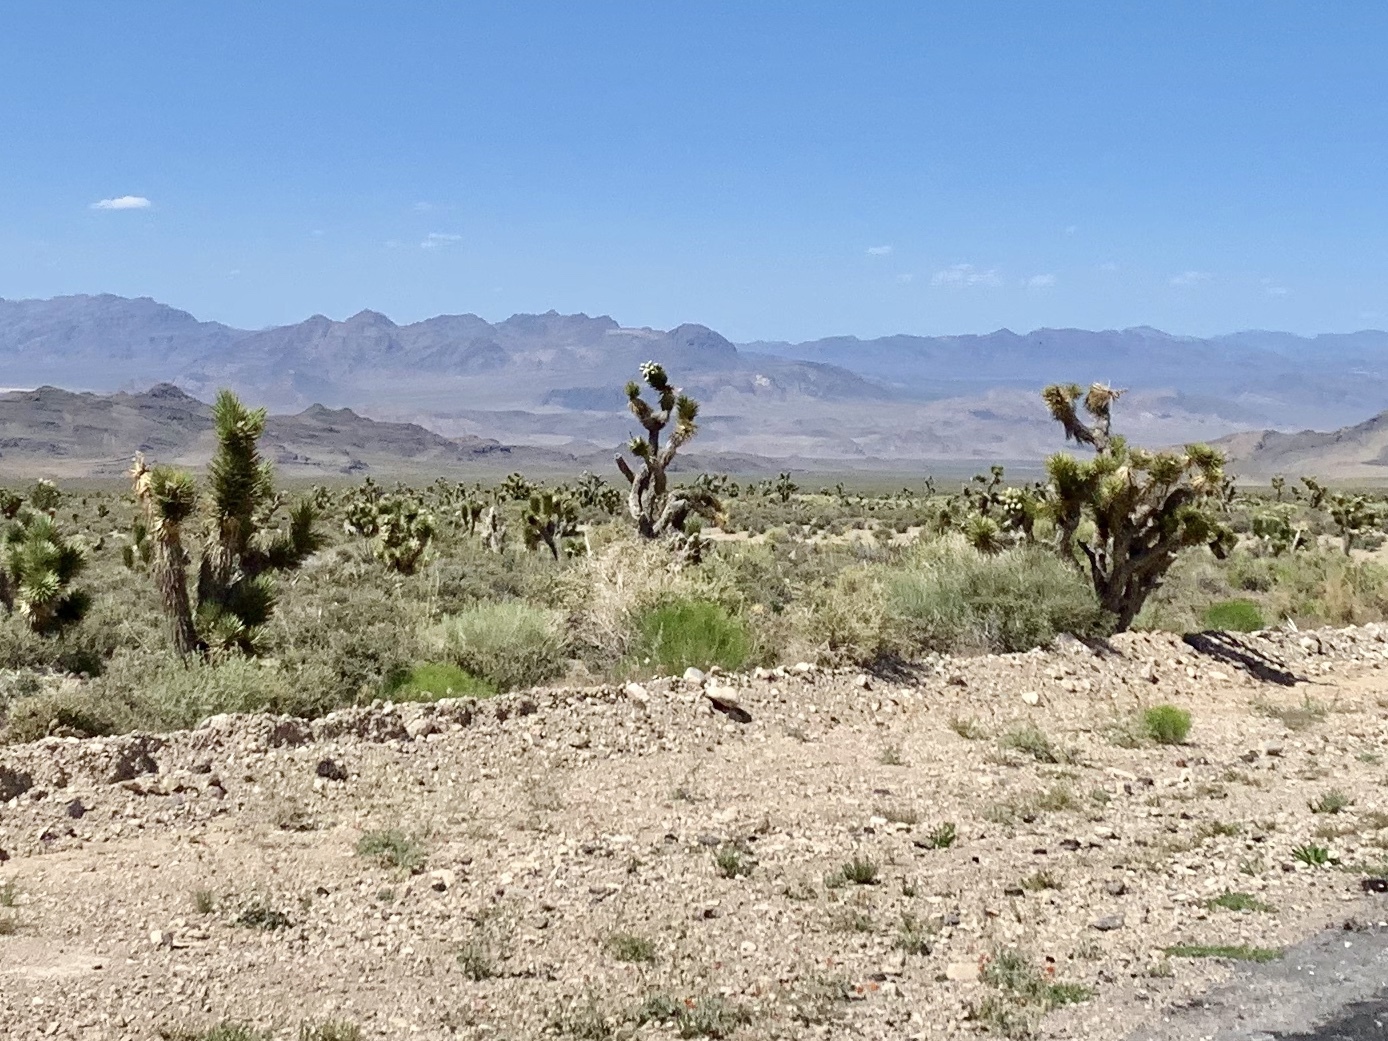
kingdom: Plantae
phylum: Tracheophyta
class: Liliopsida
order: Asparagales
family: Asparagaceae
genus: Yucca
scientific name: Yucca brevifolia
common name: Joshua tree
